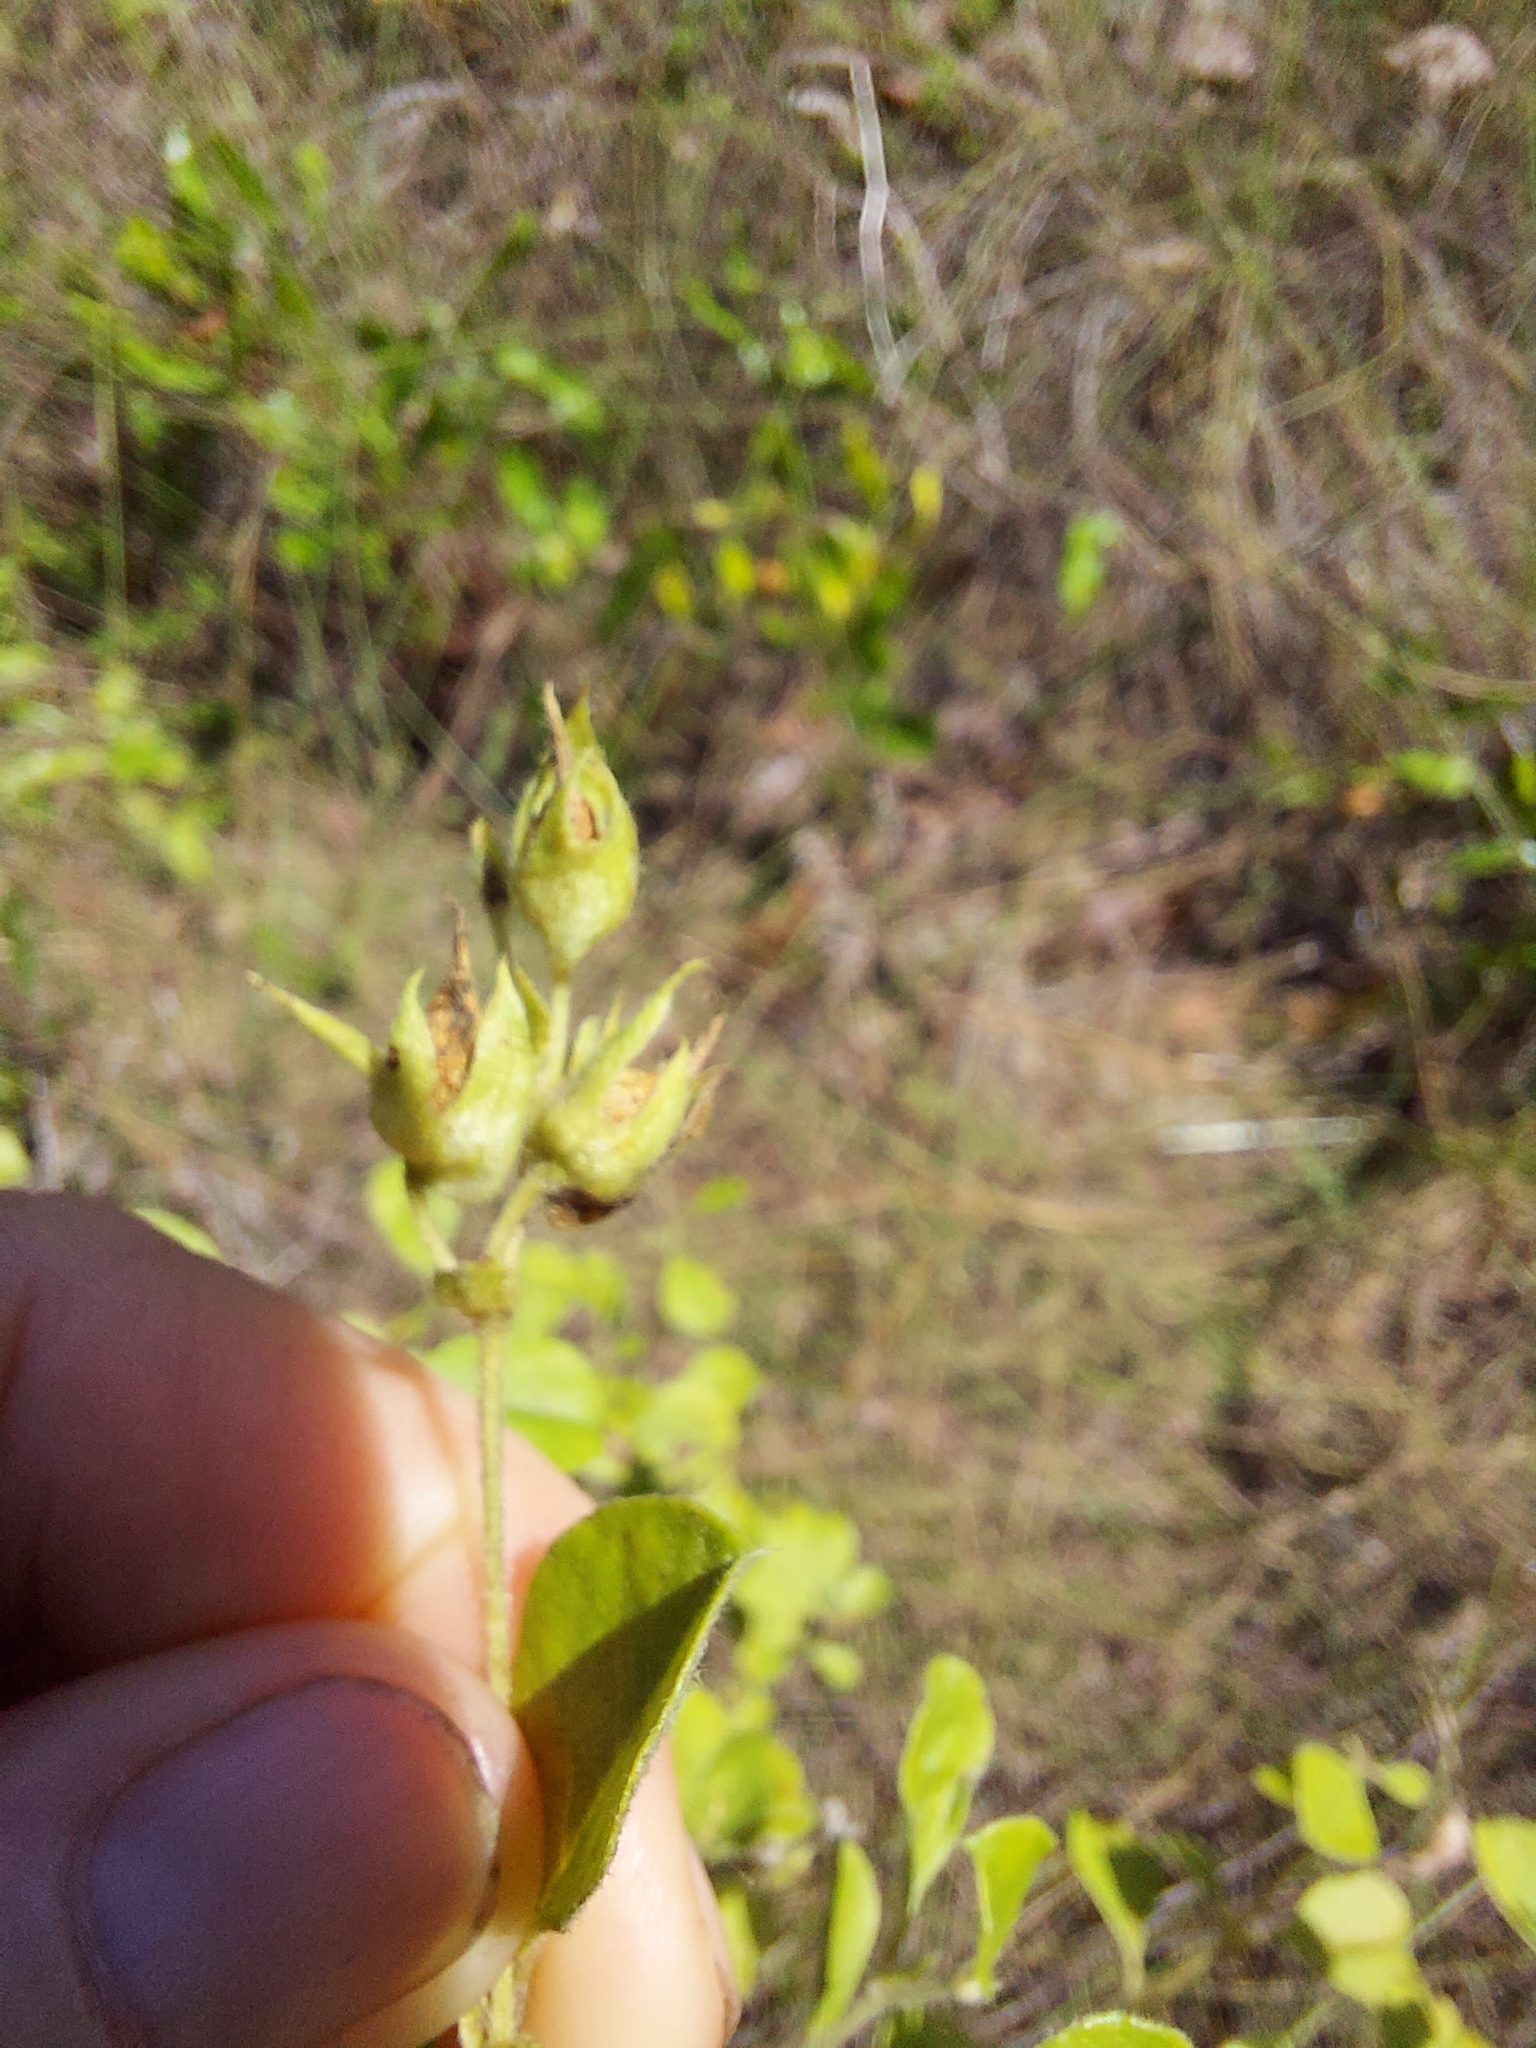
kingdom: Plantae
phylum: Tracheophyta
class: Magnoliopsida
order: Fabales
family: Fabaceae
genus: Pediomelum
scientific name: Pediomelum canescens
